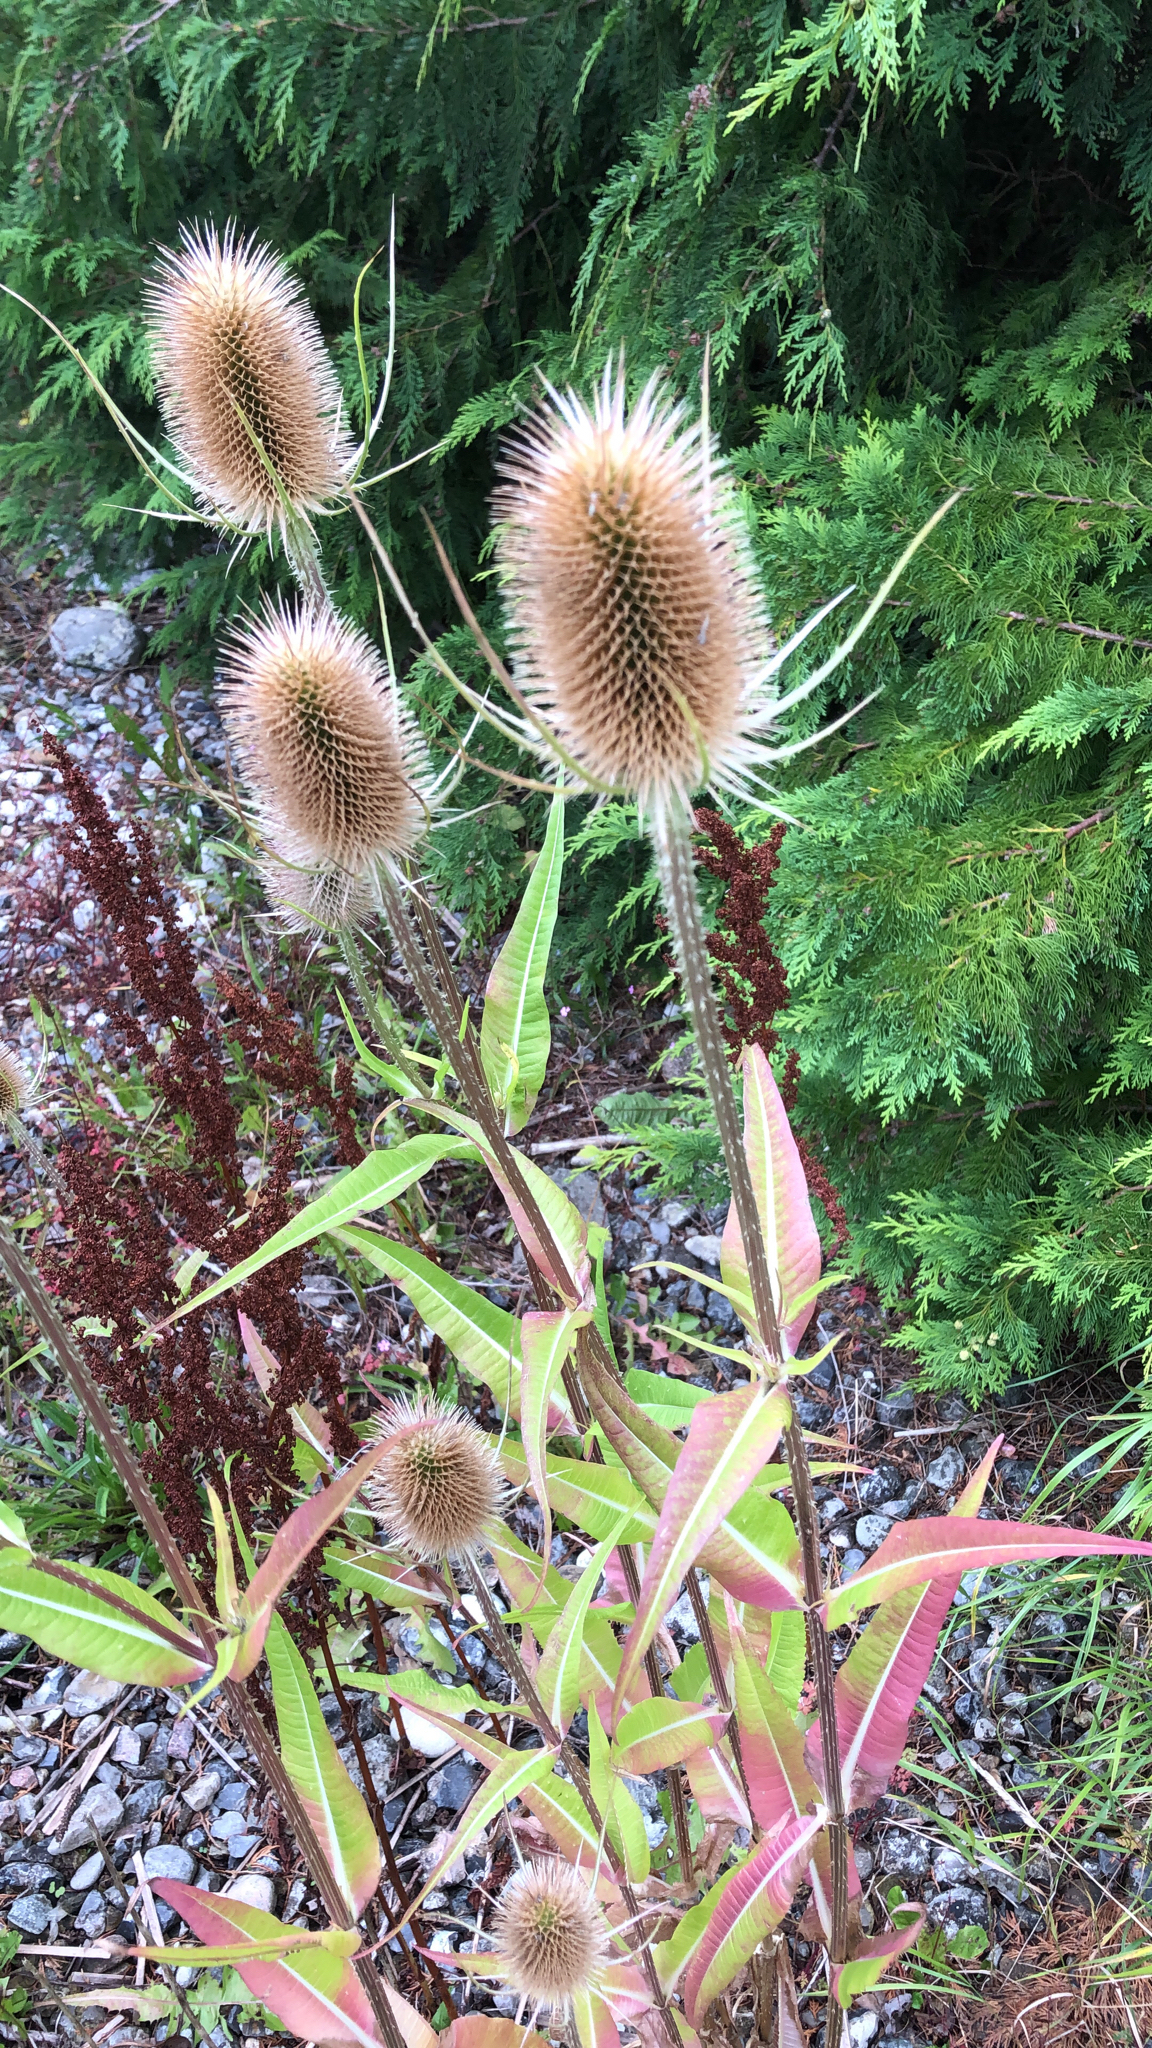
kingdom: Plantae
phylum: Tracheophyta
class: Magnoliopsida
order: Dipsacales
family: Caprifoliaceae
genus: Dipsacus
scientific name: Dipsacus fullonum
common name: Teasel
